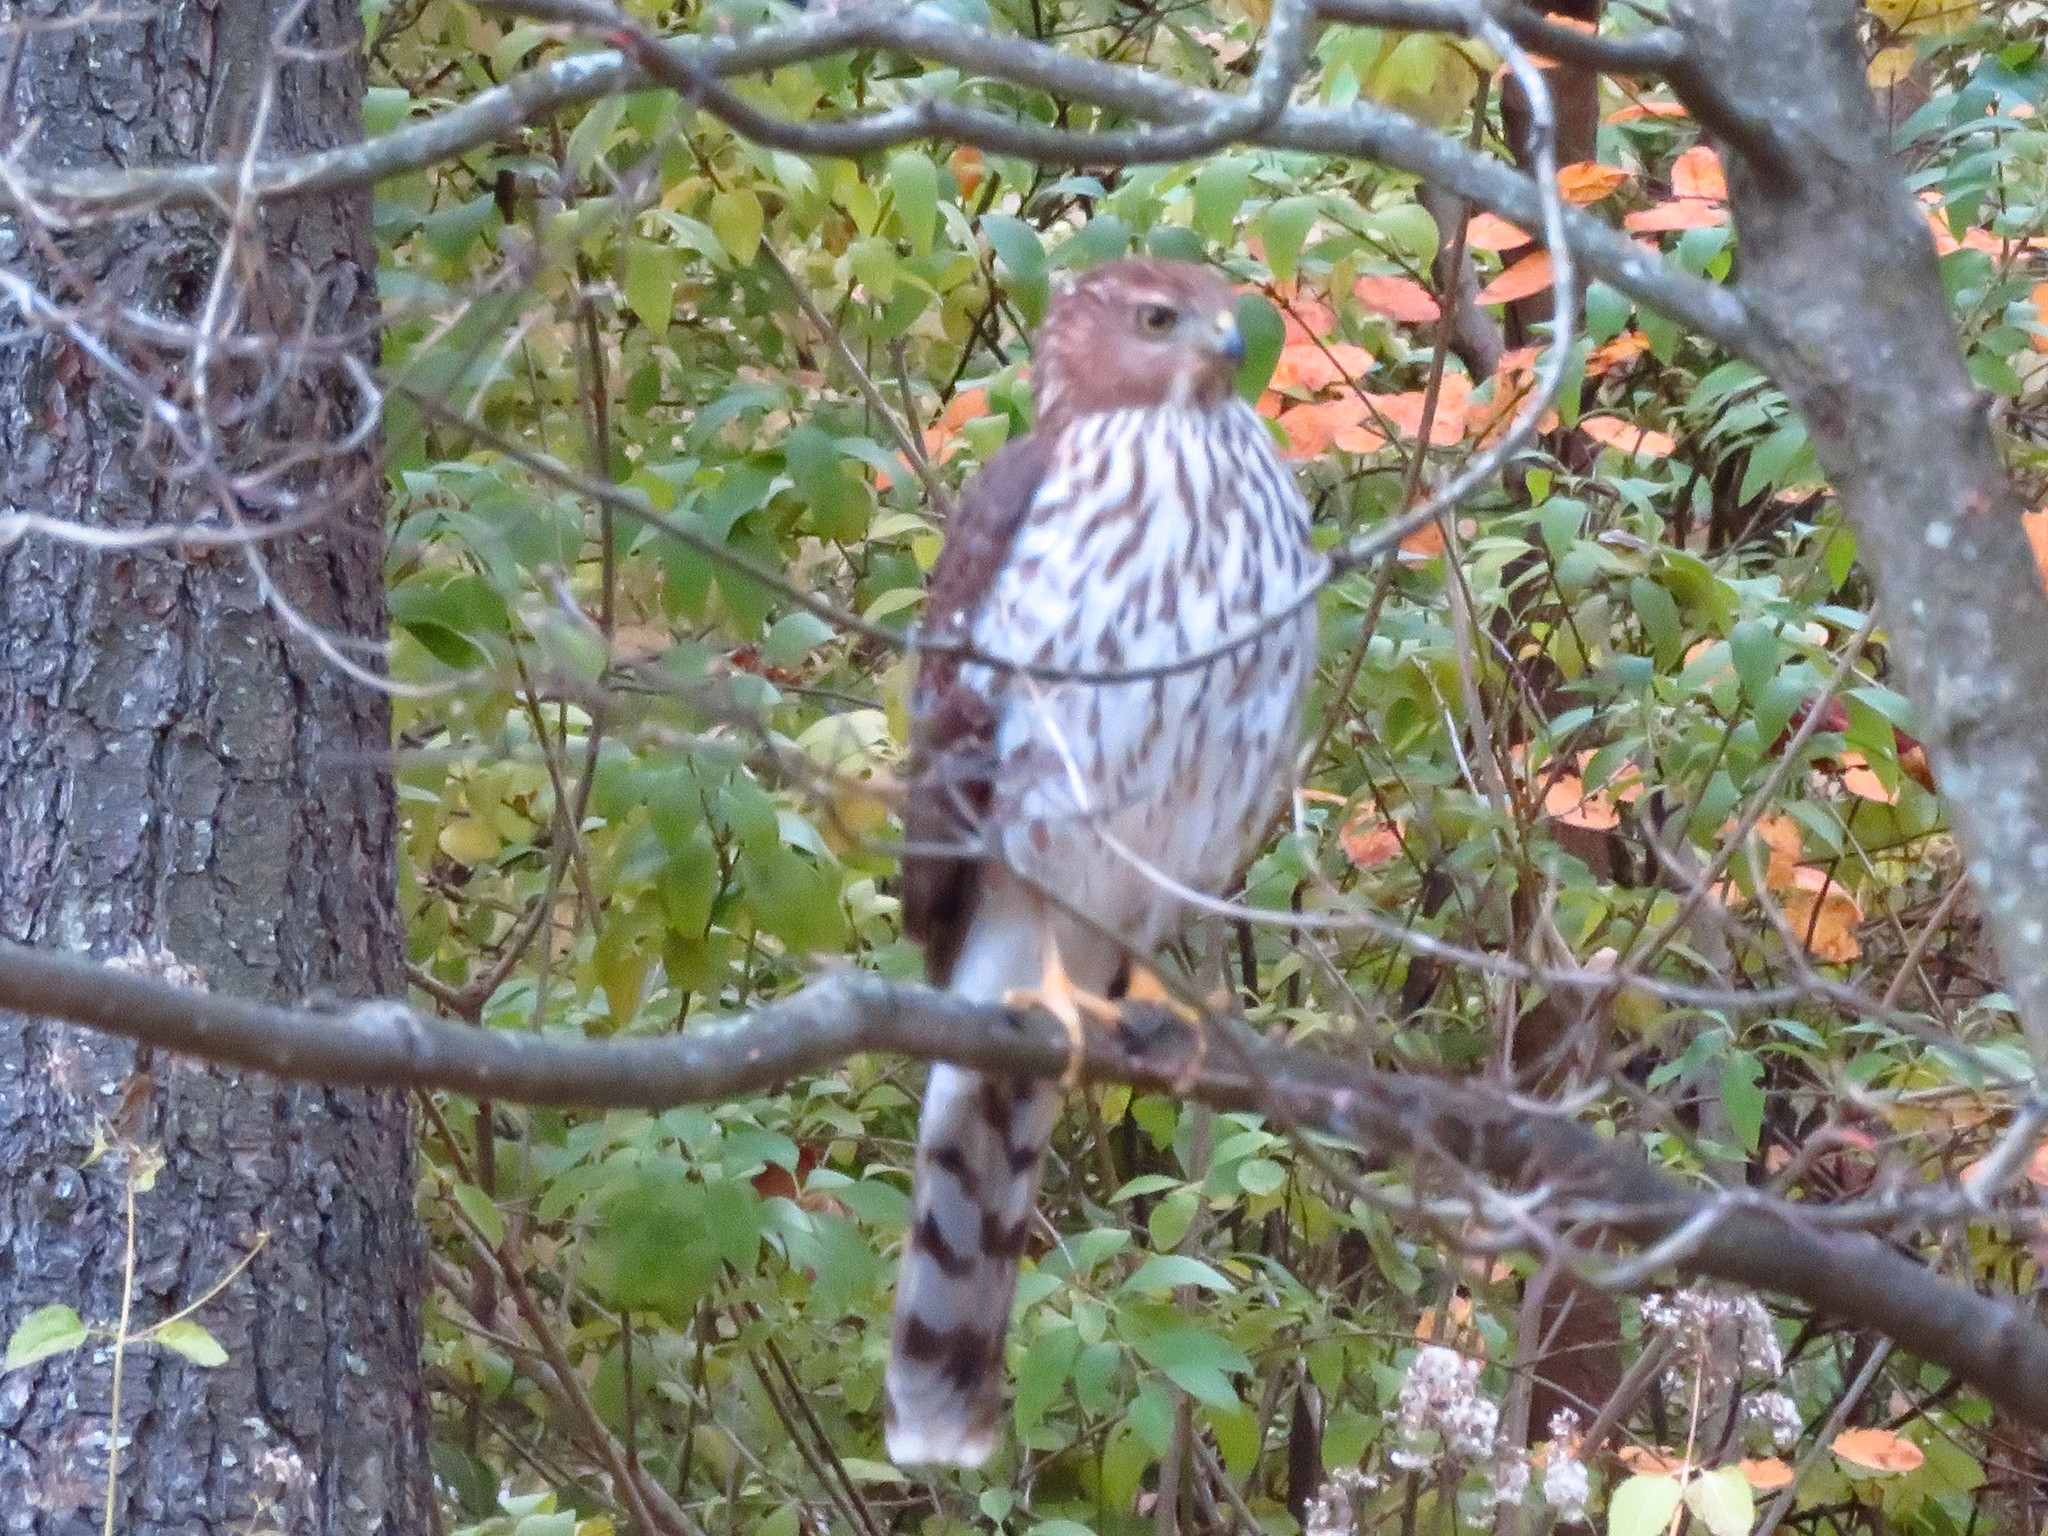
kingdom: Animalia
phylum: Chordata
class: Aves
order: Accipitriformes
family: Accipitridae
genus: Accipiter
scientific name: Accipiter cooperii
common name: Cooper's hawk
